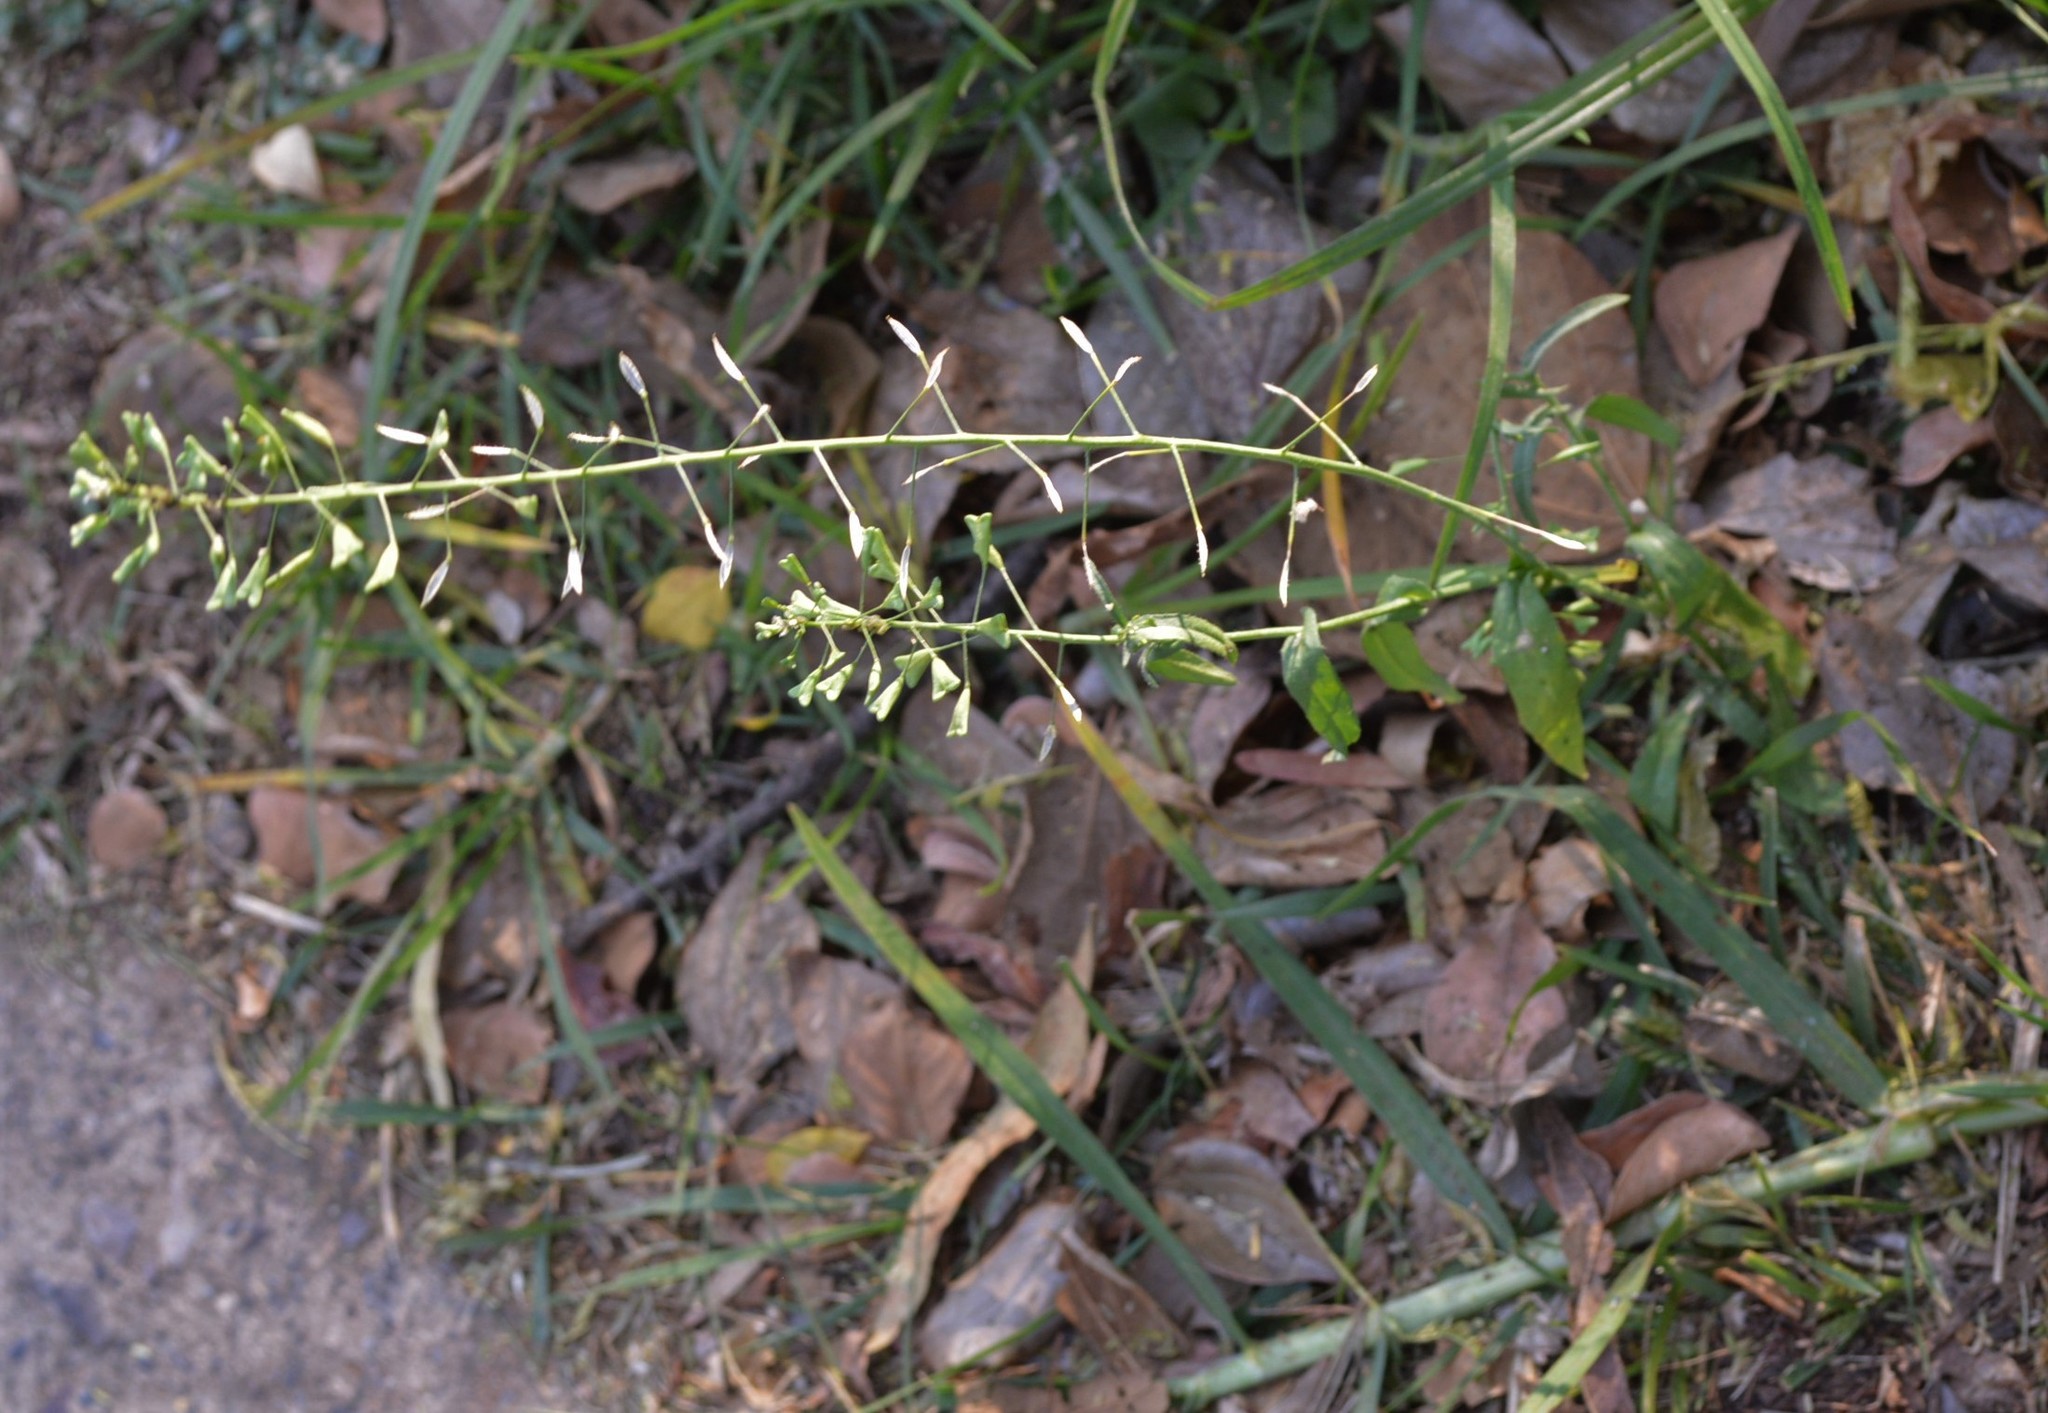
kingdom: Plantae
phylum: Tracheophyta
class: Magnoliopsida
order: Brassicales
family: Brassicaceae
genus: Capsella
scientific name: Capsella bursa-pastoris
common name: Shepherd's purse
